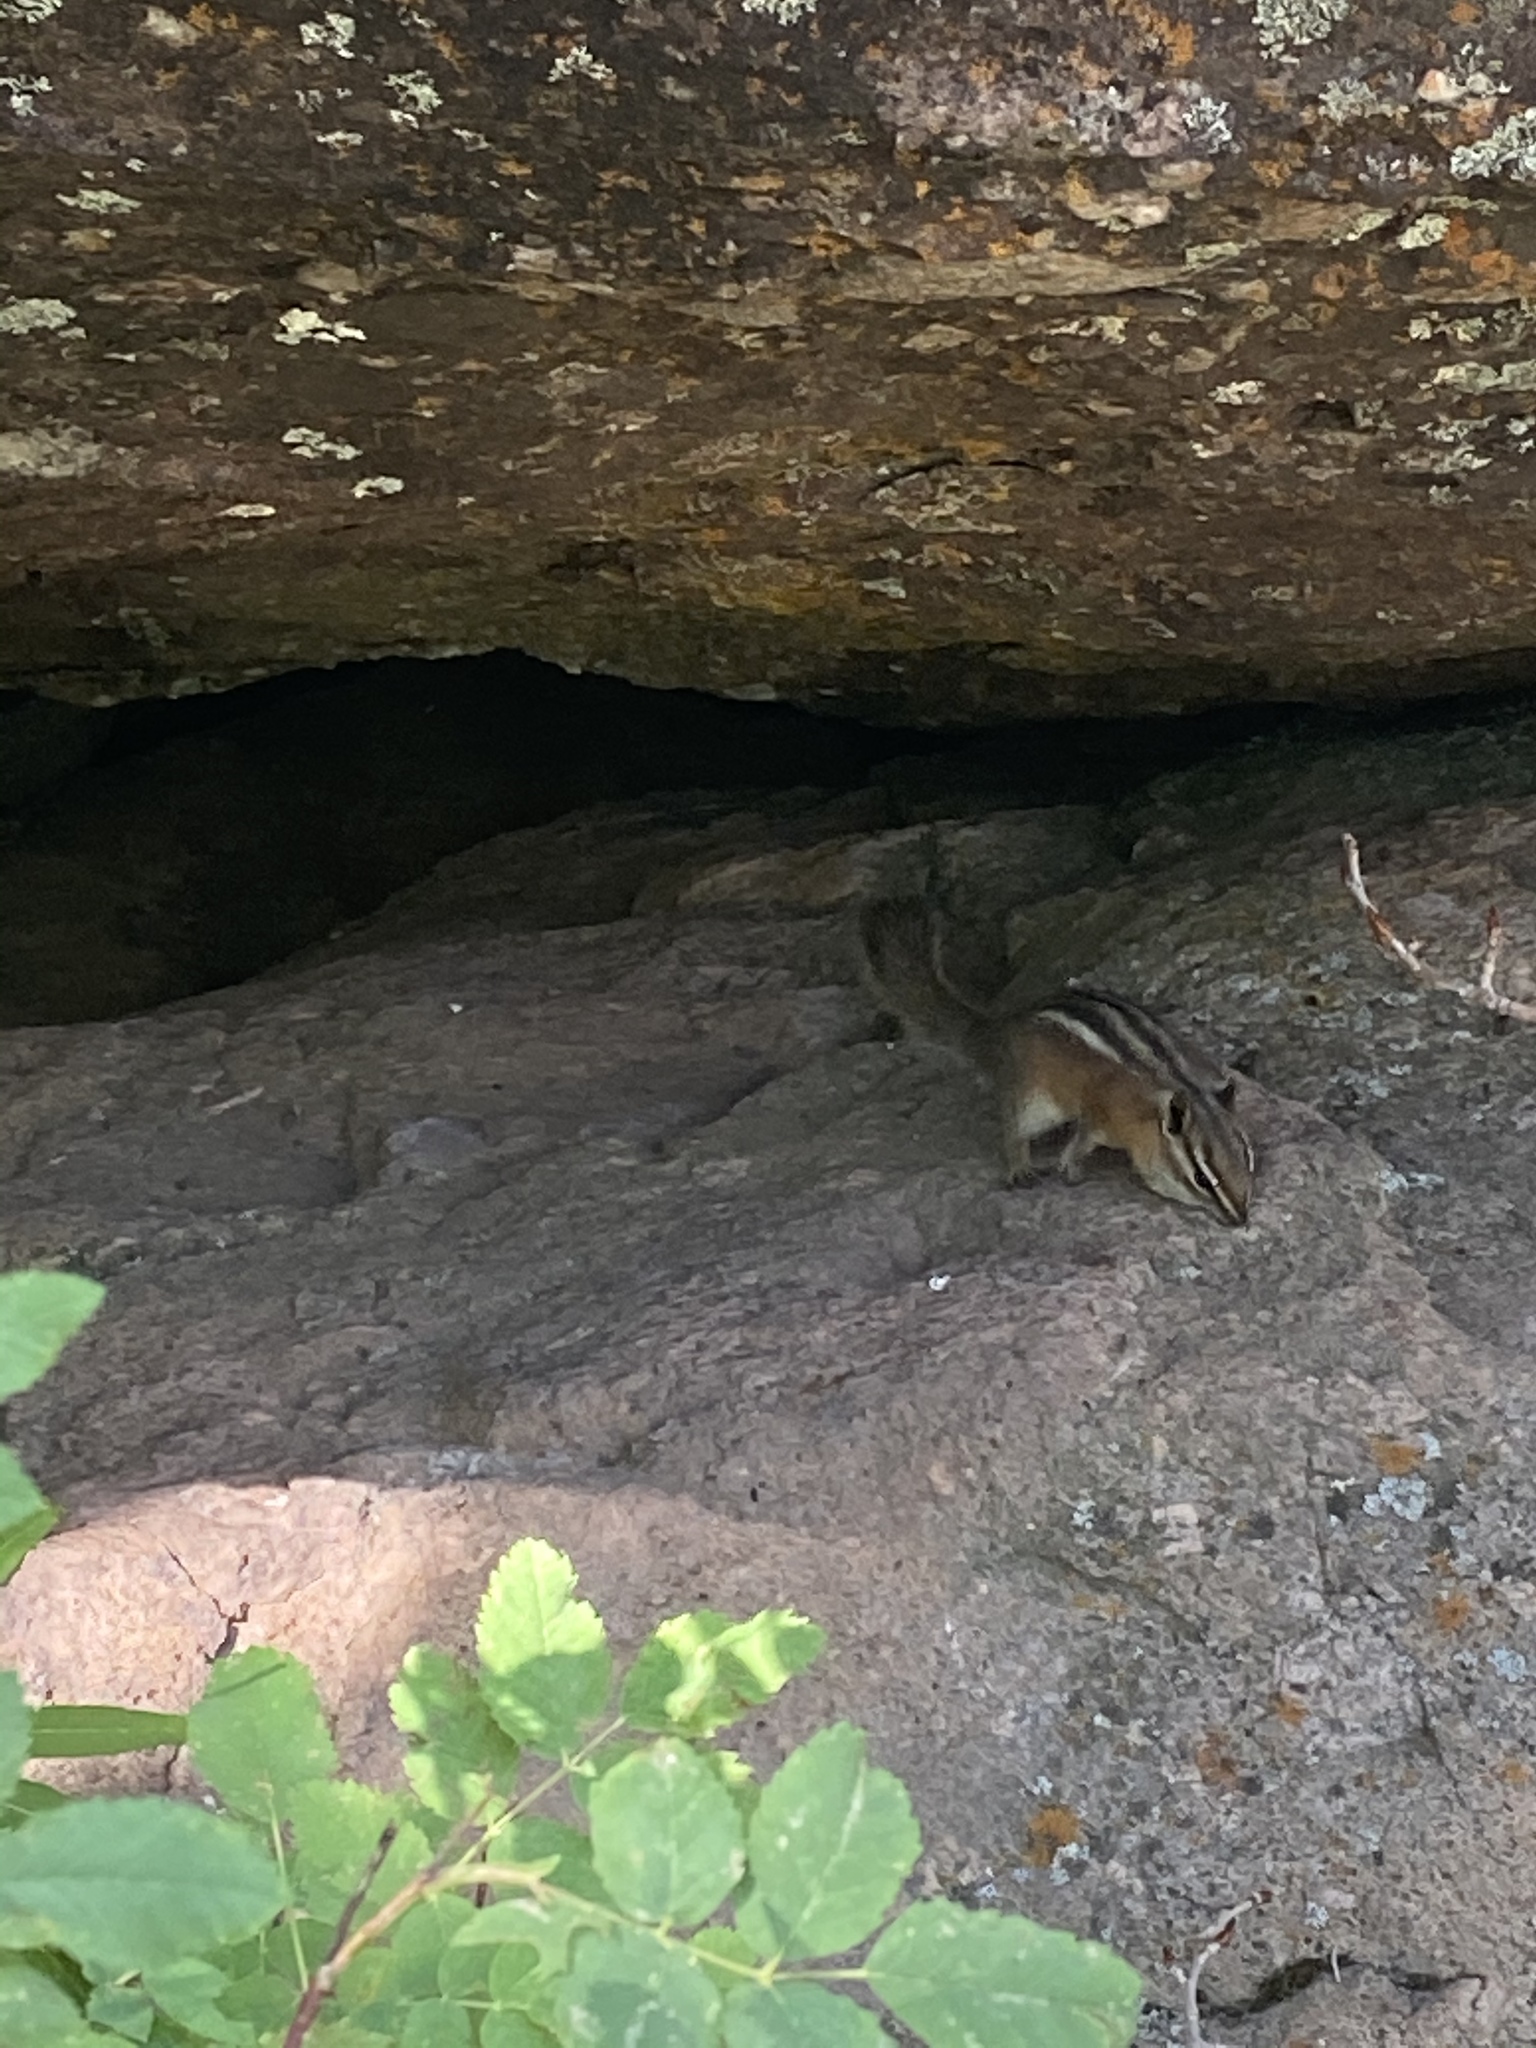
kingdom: Animalia
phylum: Chordata
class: Mammalia
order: Rodentia
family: Sciuridae
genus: Tamias
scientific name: Tamias minimus
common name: Least chipmunk
